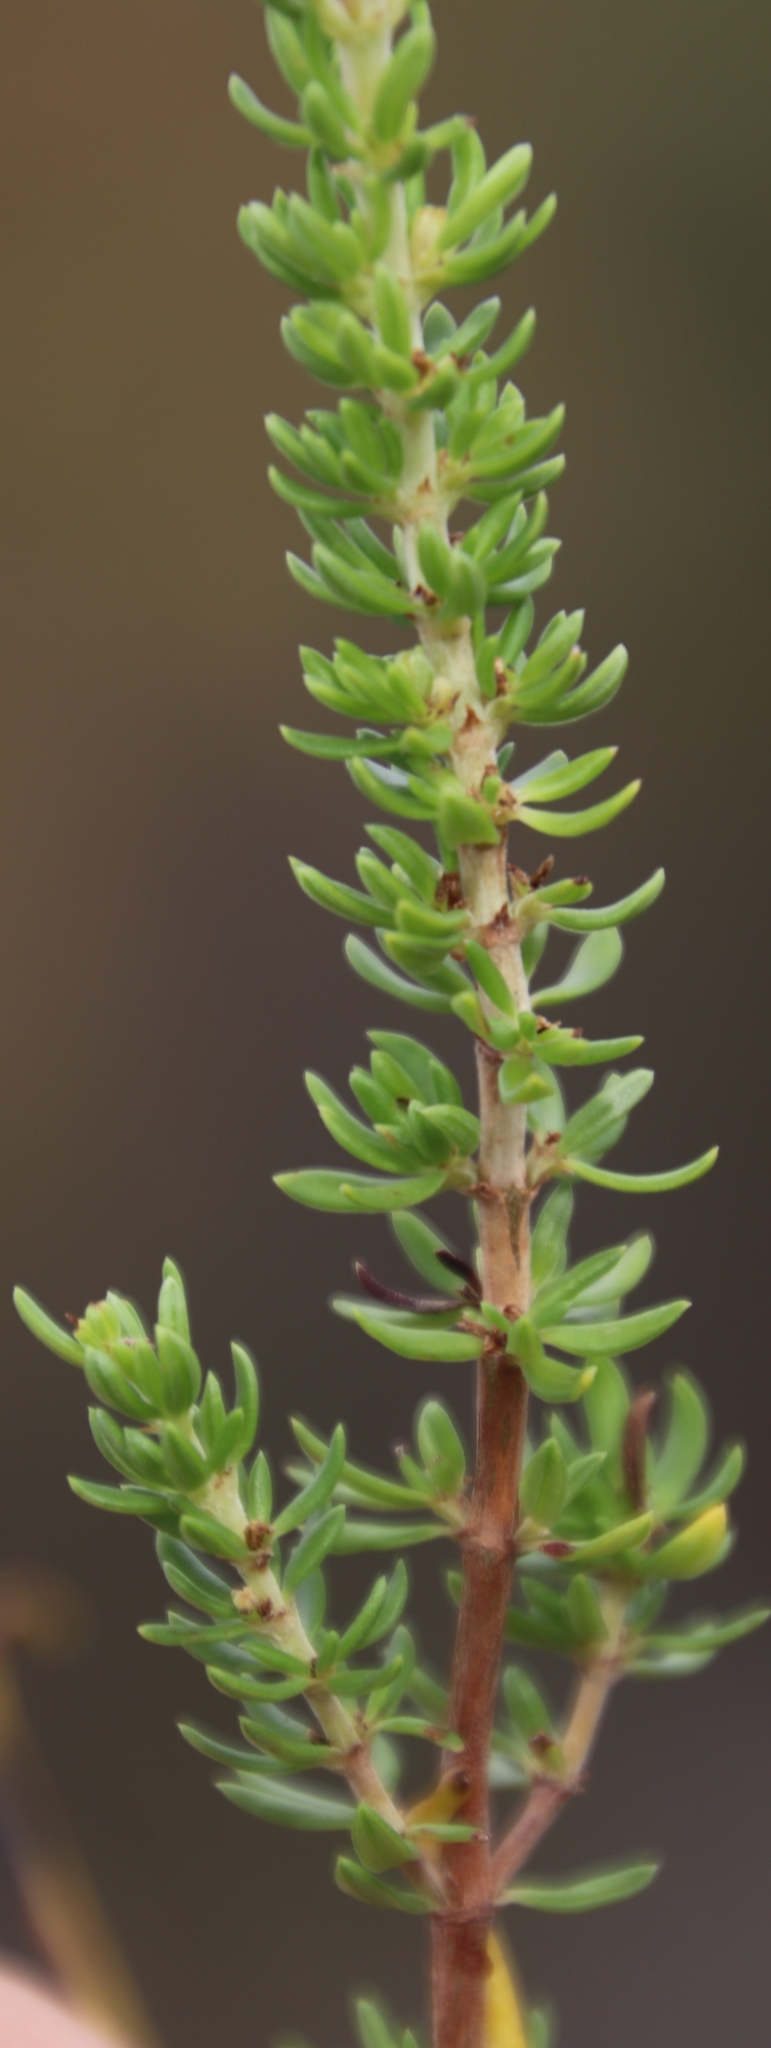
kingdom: Plantae
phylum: Tracheophyta
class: Magnoliopsida
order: Laurales
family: Lauraceae
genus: Cassytha
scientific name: Cassytha ciliolata
